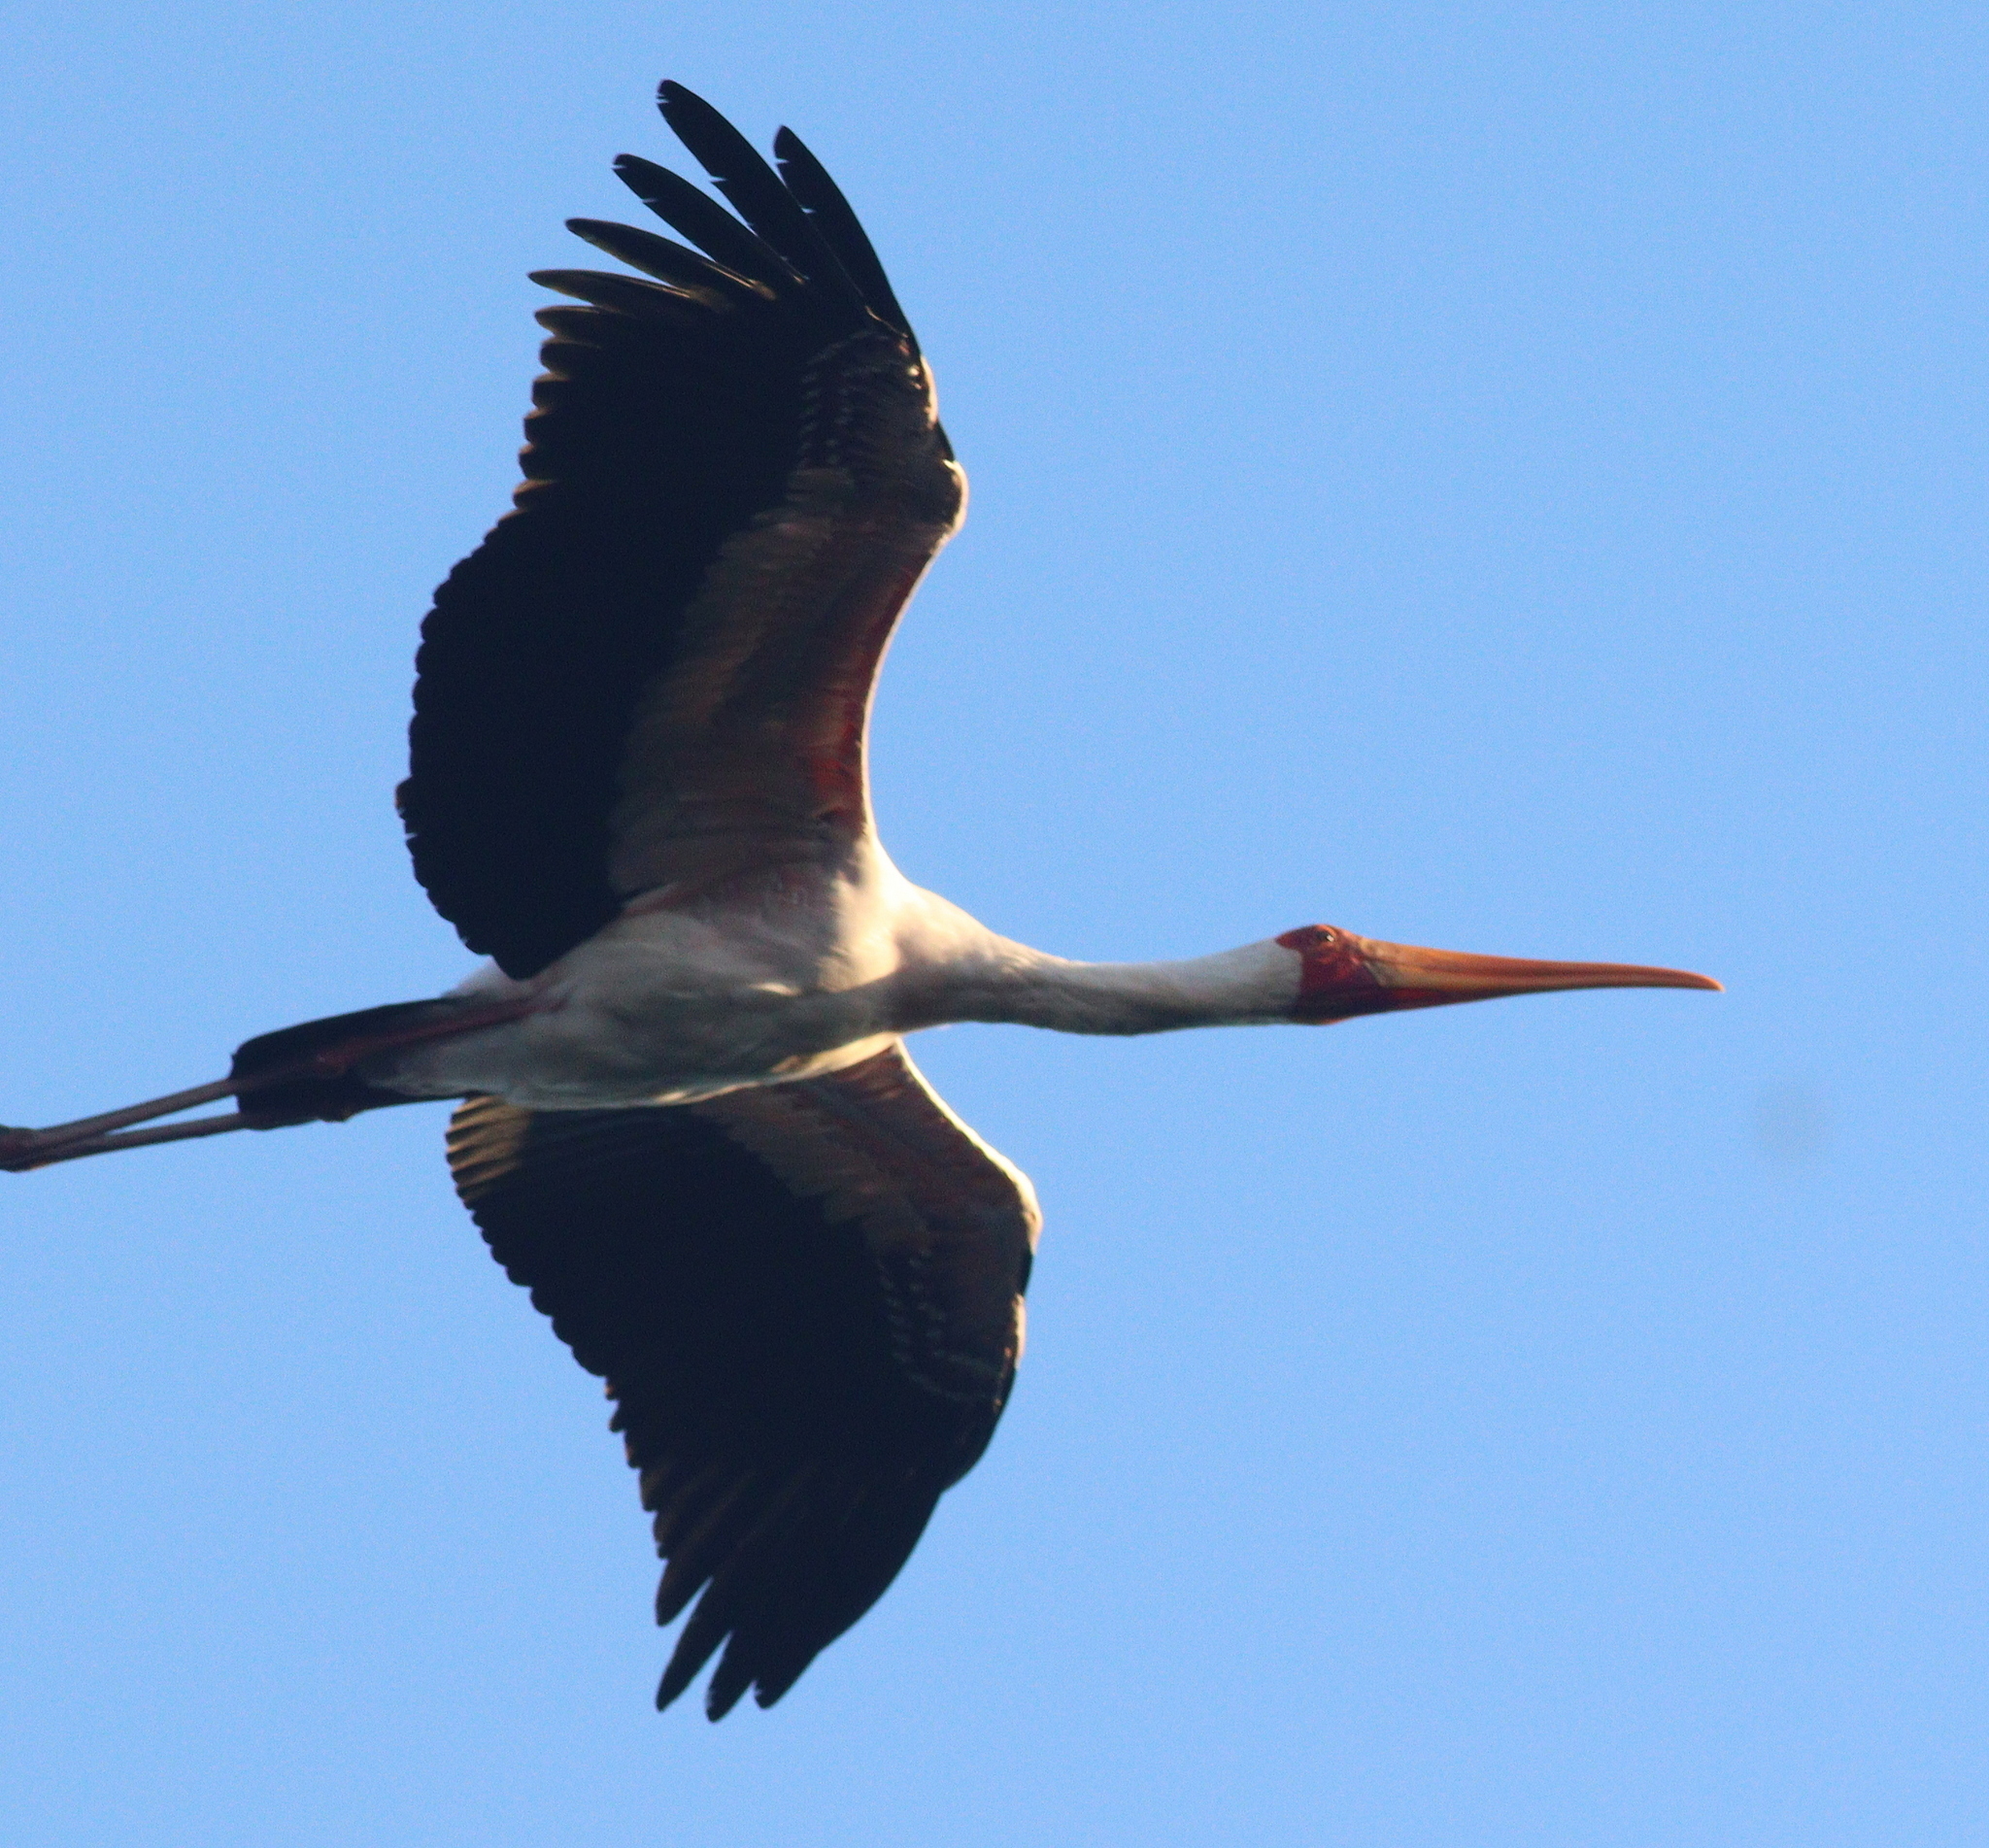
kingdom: Animalia
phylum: Chordata
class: Aves
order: Ciconiiformes
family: Ciconiidae
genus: Mycteria
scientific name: Mycteria ibis
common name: Yellow-billed stork
